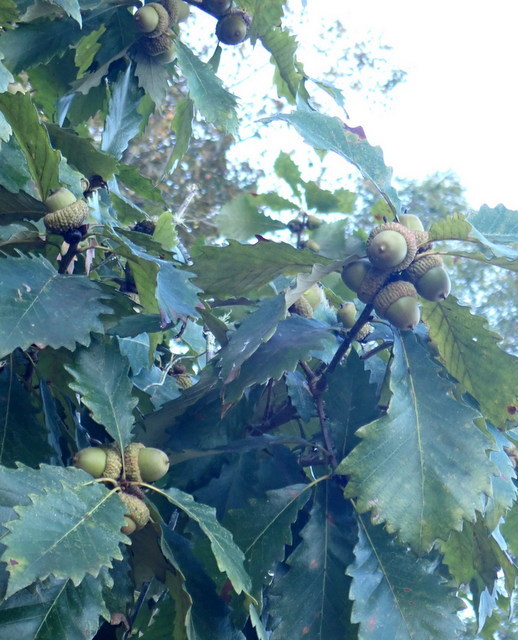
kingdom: Plantae
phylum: Tracheophyta
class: Magnoliopsida
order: Fagales
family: Fagaceae
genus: Quercus
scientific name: Quercus michauxii
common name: Swamp chestnut oak
